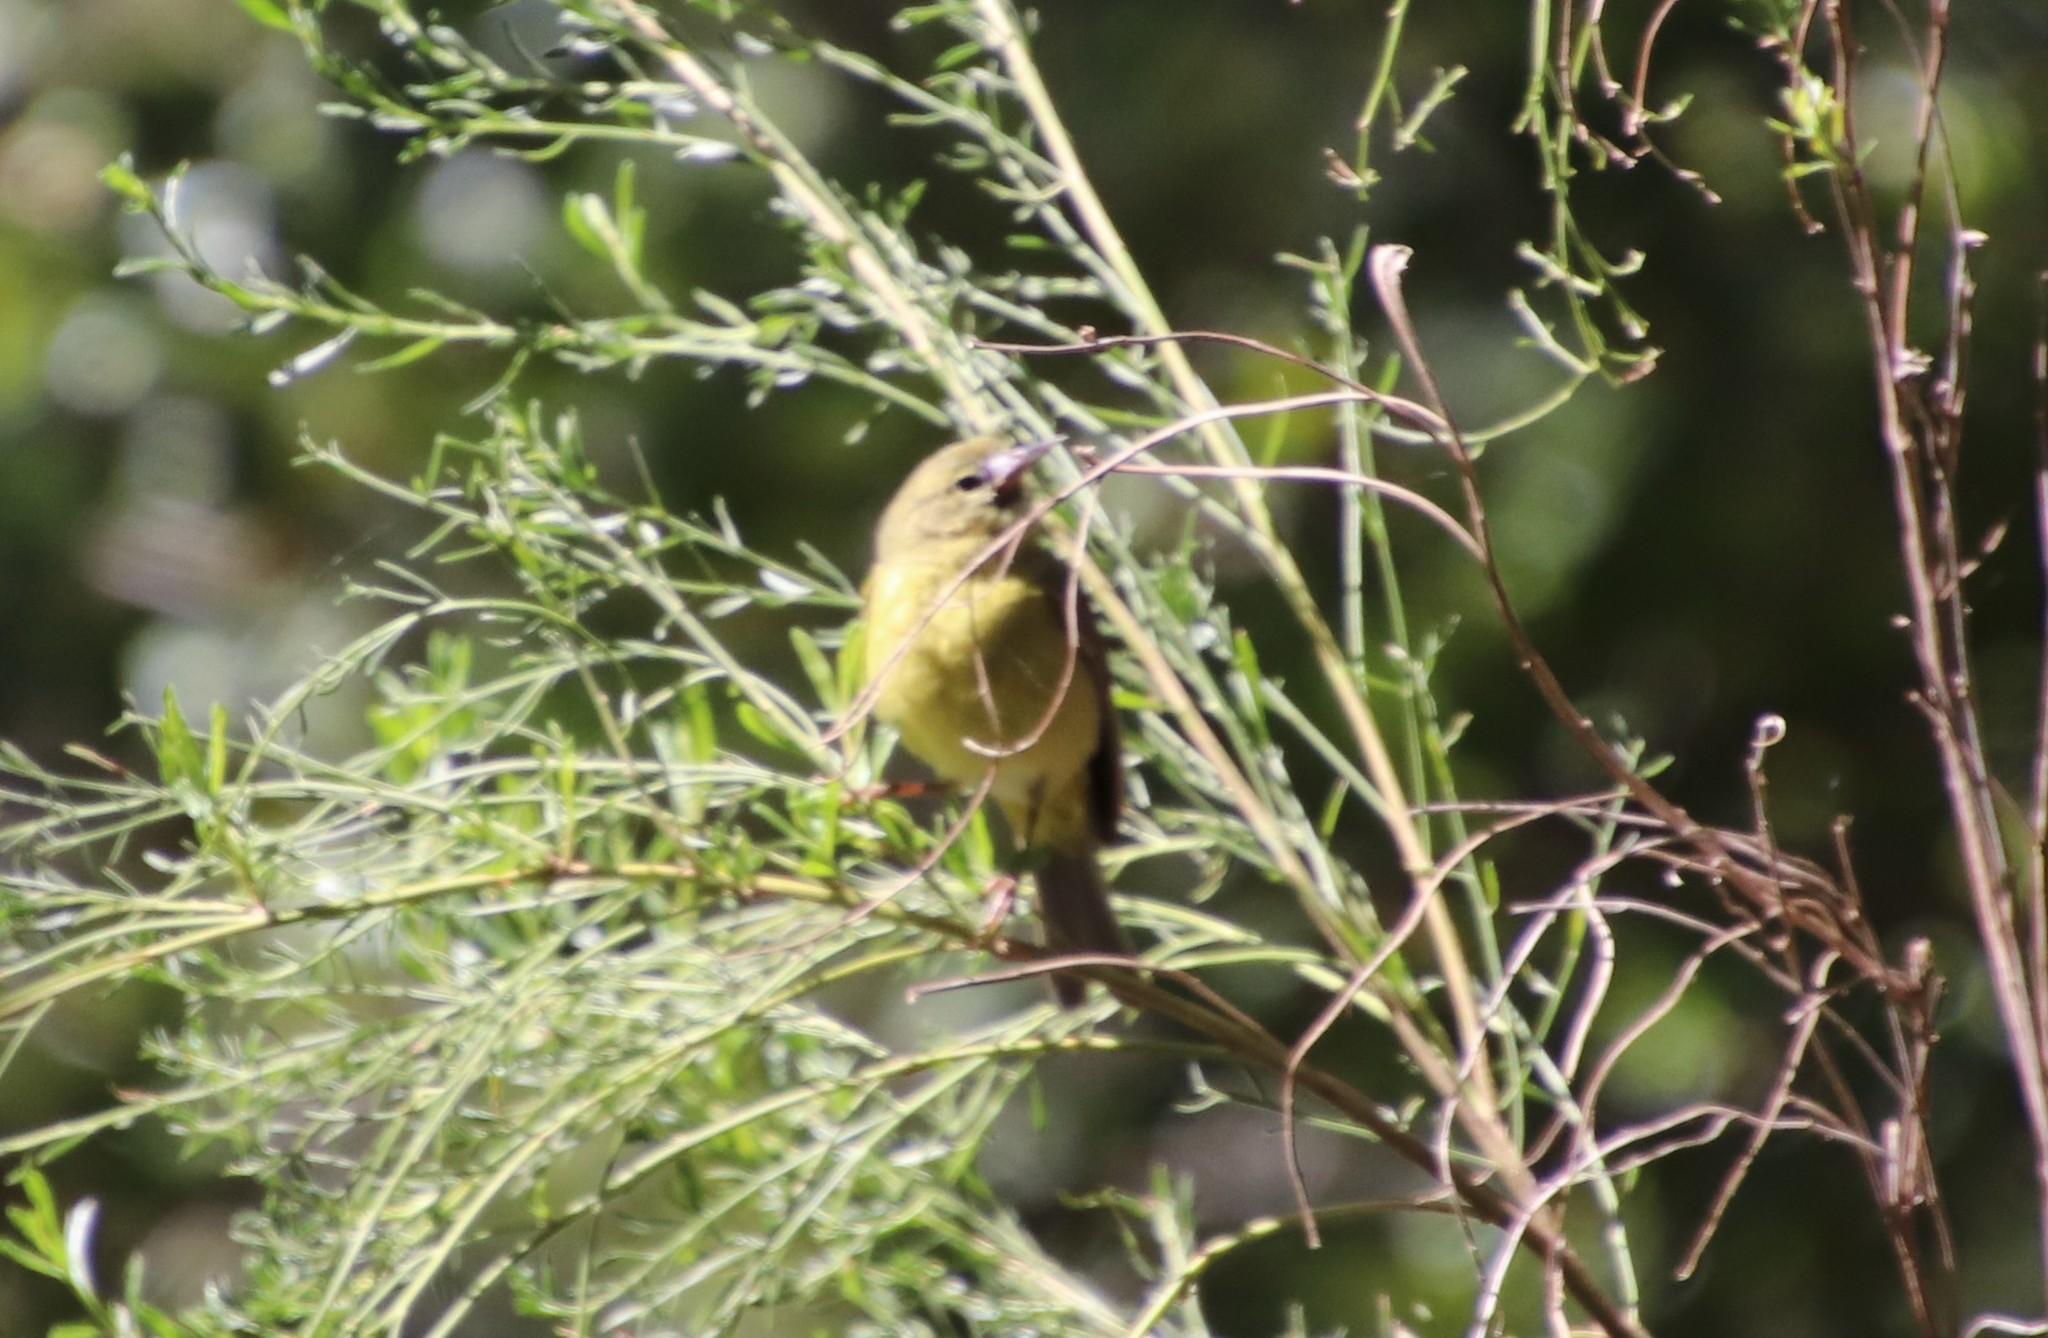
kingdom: Animalia
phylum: Chordata
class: Aves
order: Passeriformes
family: Parulidae
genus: Leiothlypis
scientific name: Leiothlypis celata
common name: Orange-crowned warbler
